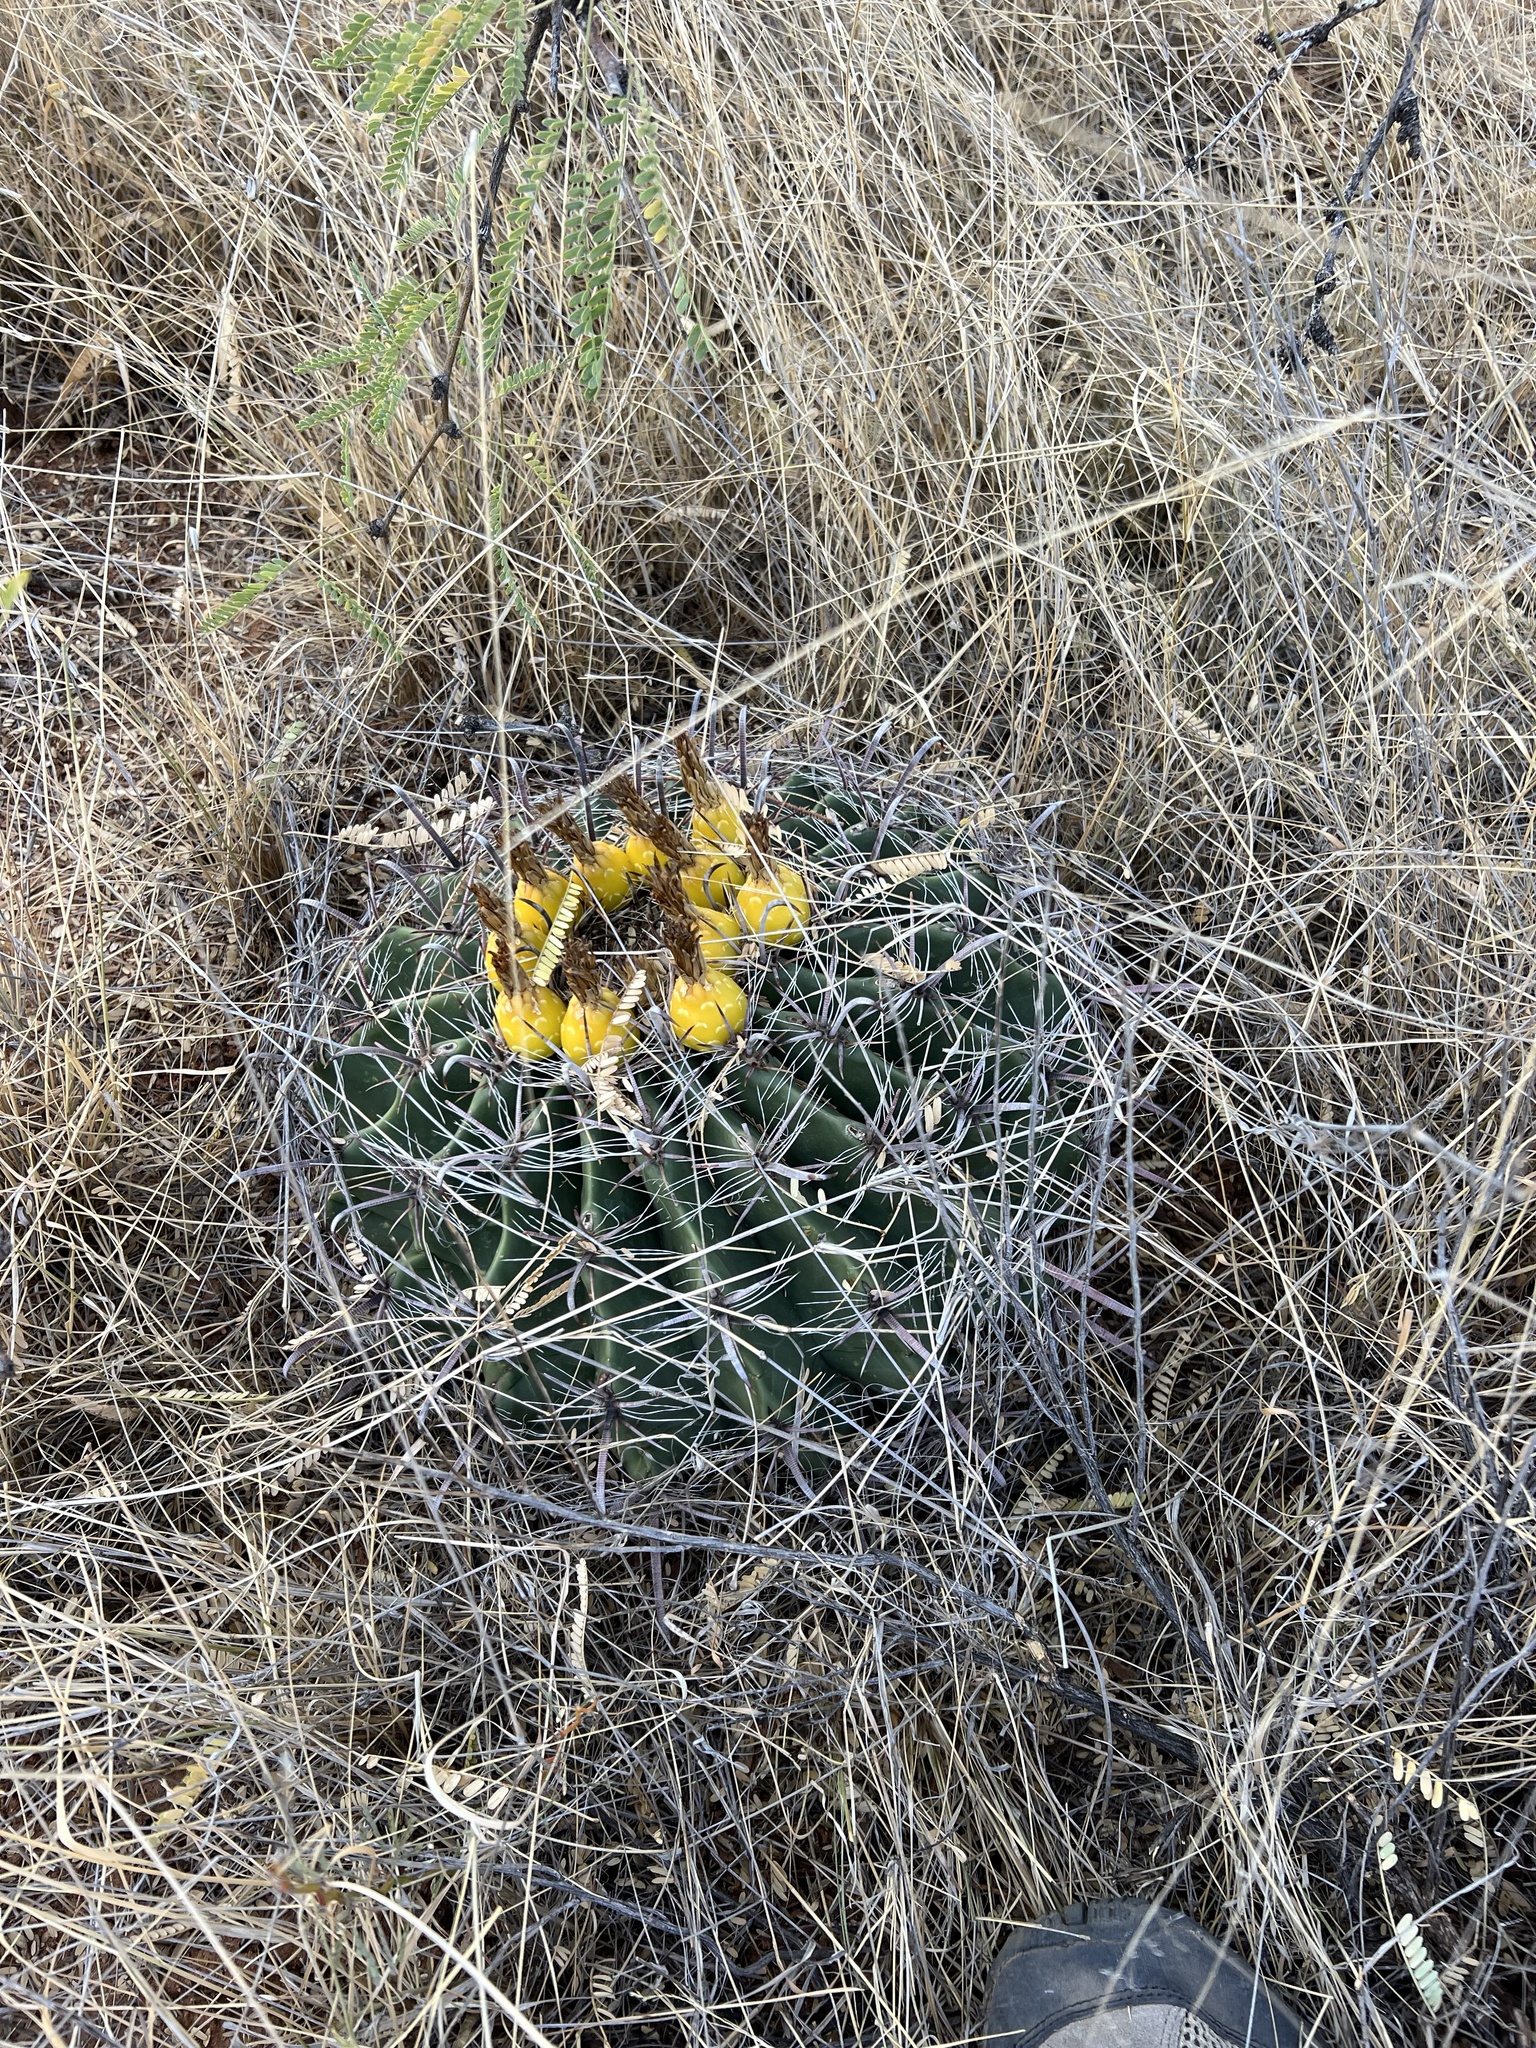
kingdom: Plantae
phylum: Tracheophyta
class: Magnoliopsida
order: Caryophyllales
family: Cactaceae
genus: Ferocactus
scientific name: Ferocactus wislizeni
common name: Candy barrel cactus
